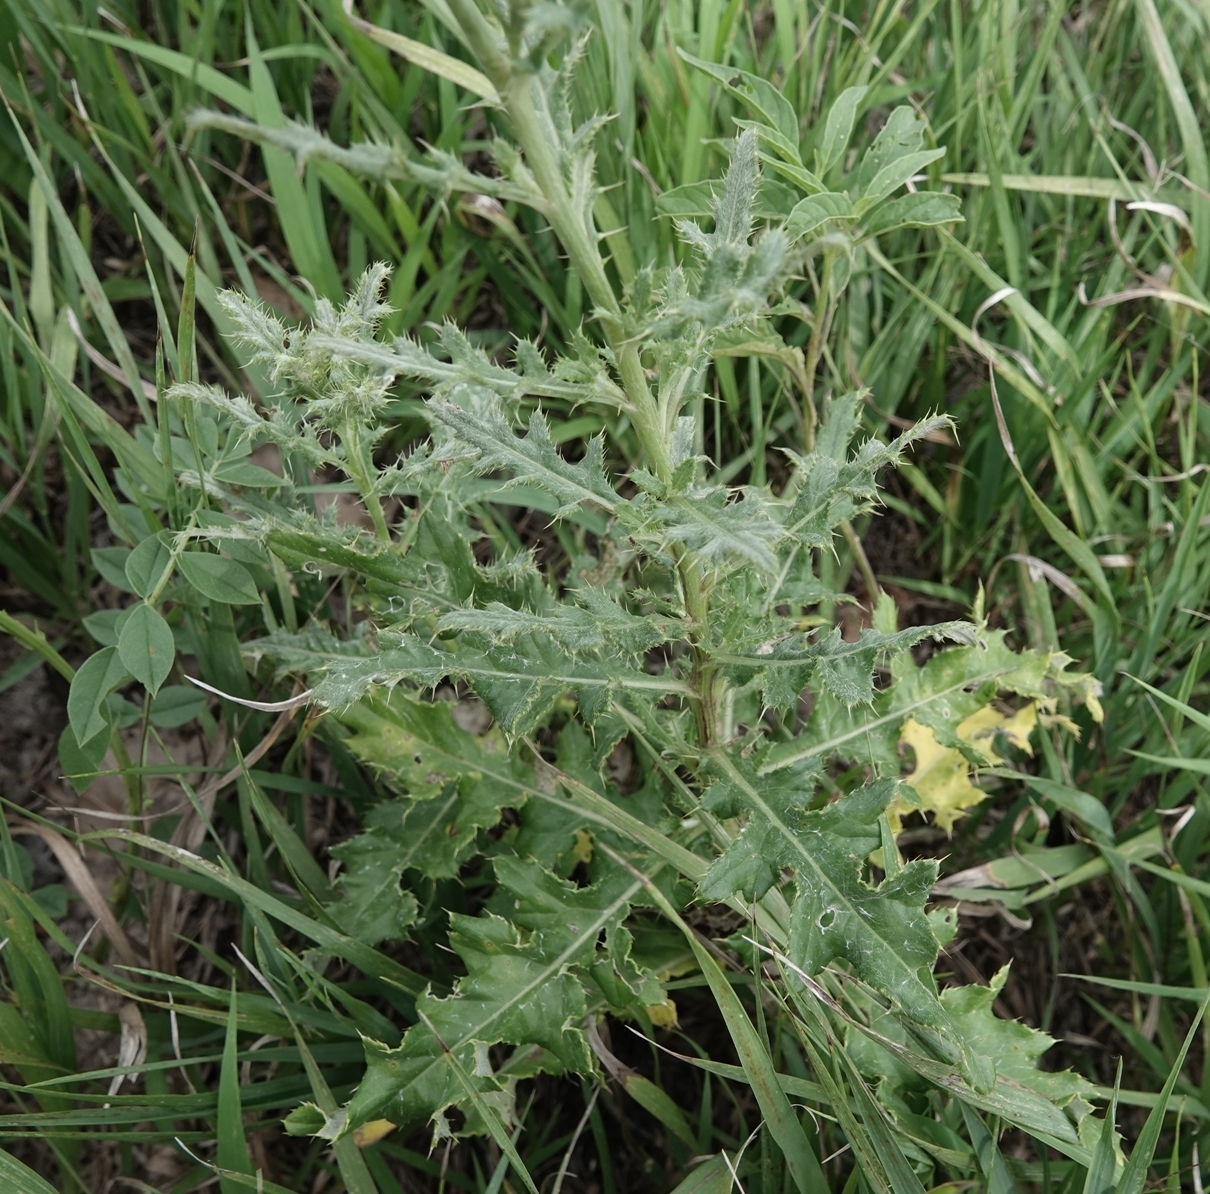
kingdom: Plantae
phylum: Tracheophyta
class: Magnoliopsida
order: Asterales
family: Asteraceae
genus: Cirsium
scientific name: Cirsium arvense
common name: Creeping thistle
